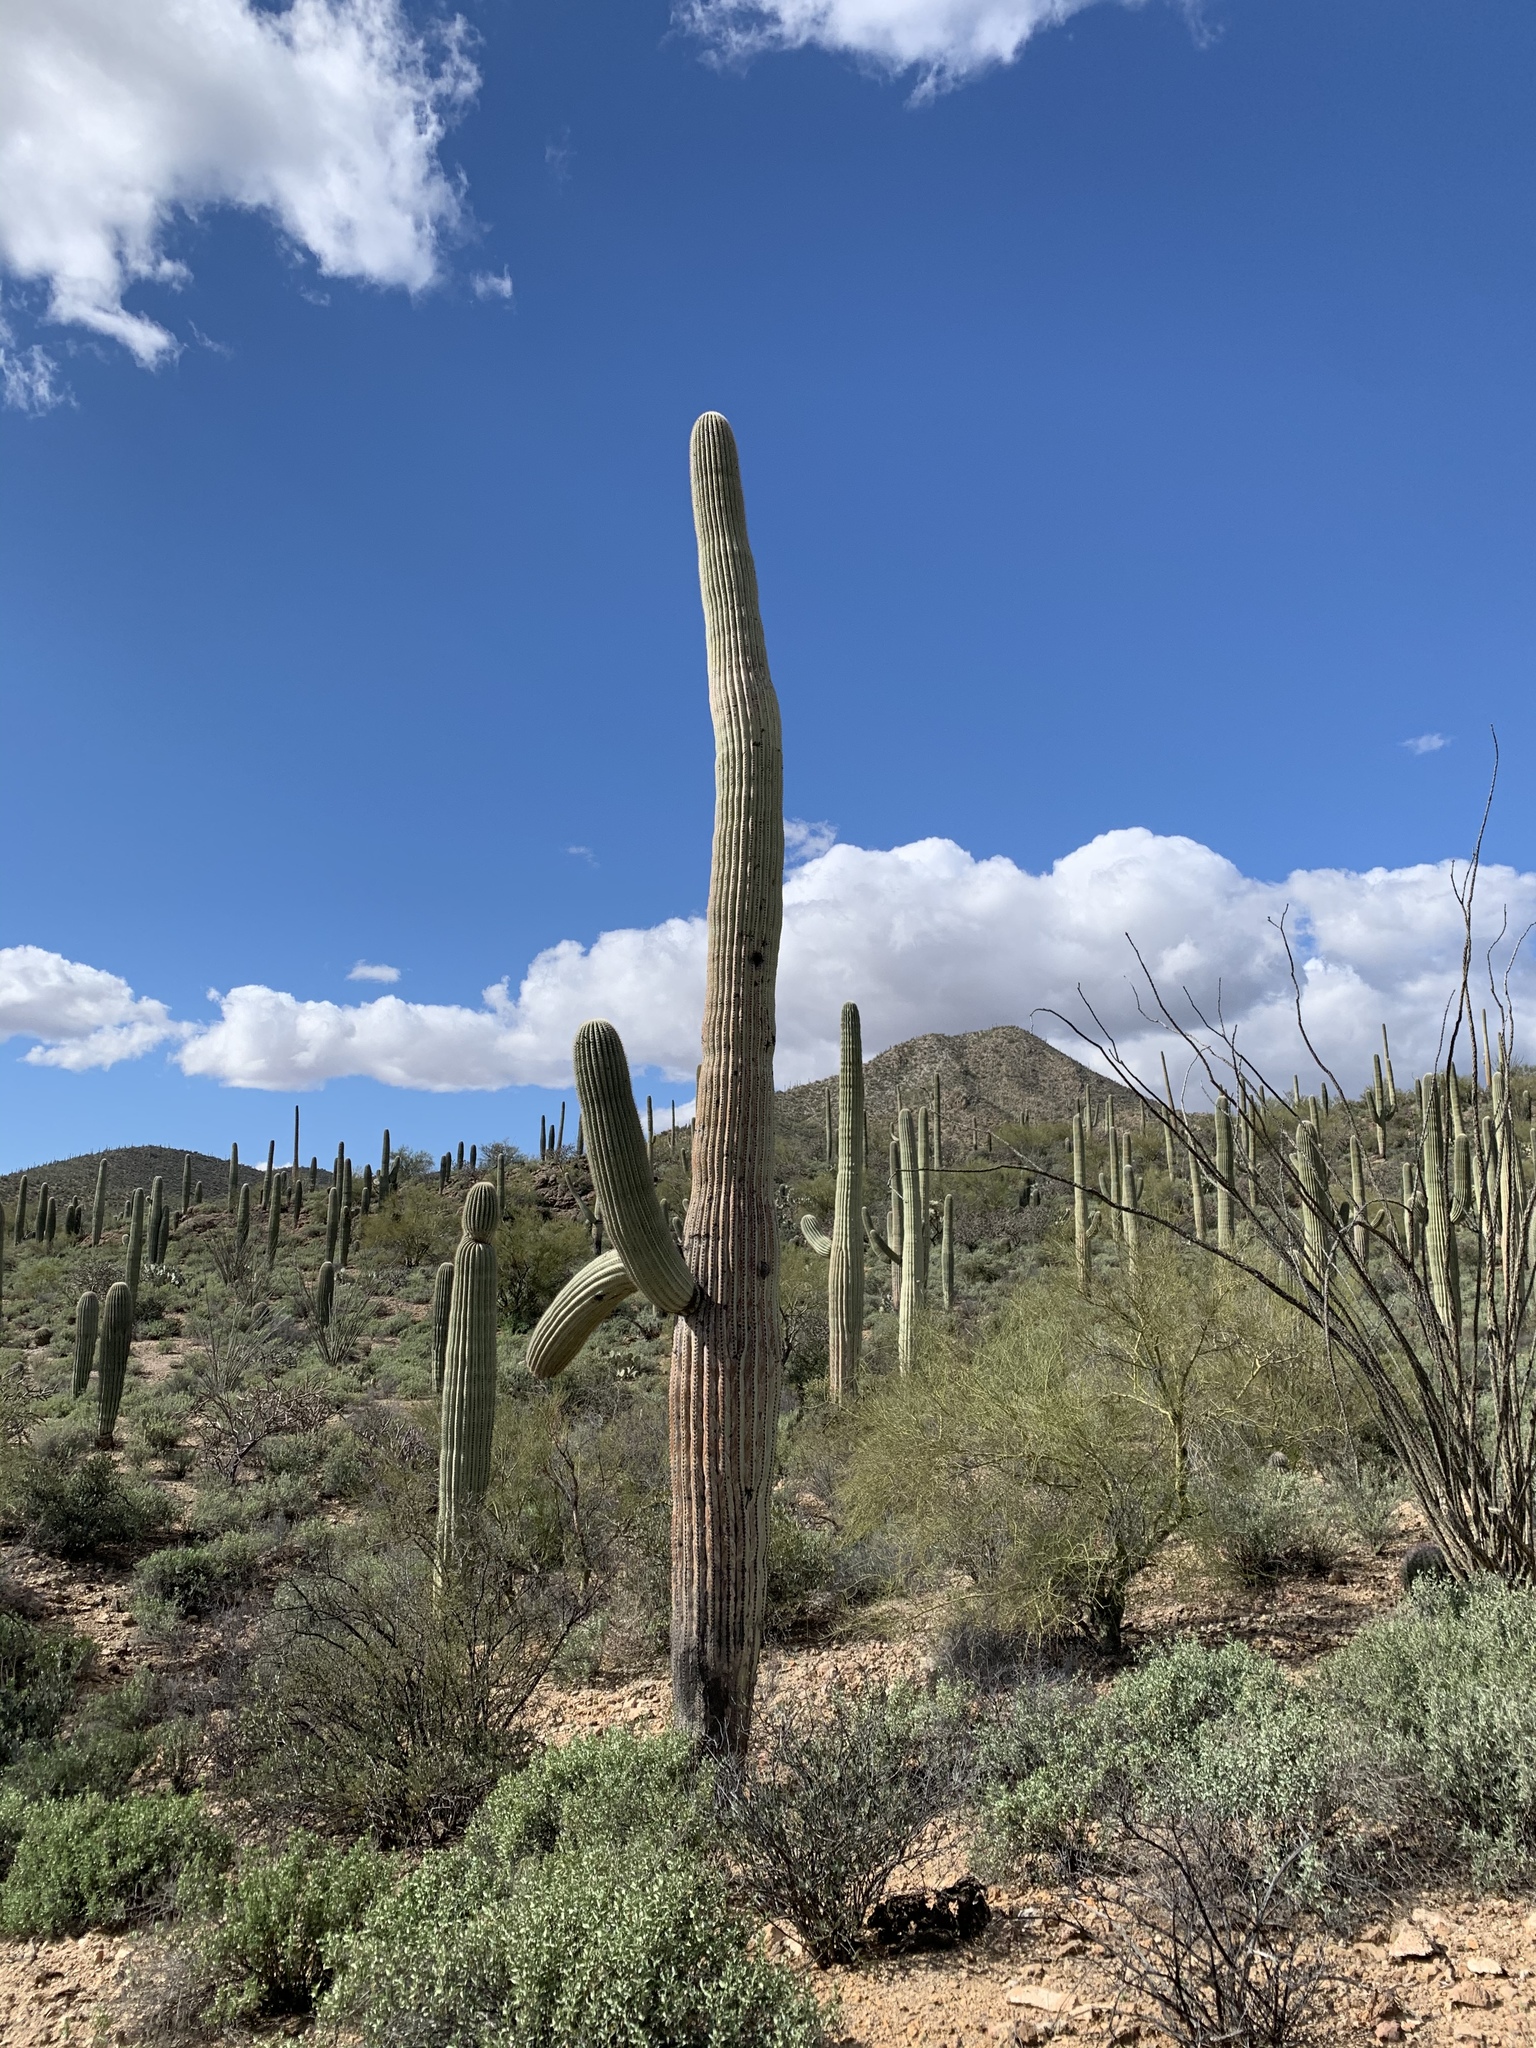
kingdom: Plantae
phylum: Tracheophyta
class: Magnoliopsida
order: Caryophyllales
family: Cactaceae
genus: Carnegiea
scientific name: Carnegiea gigantea
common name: Saguaro
